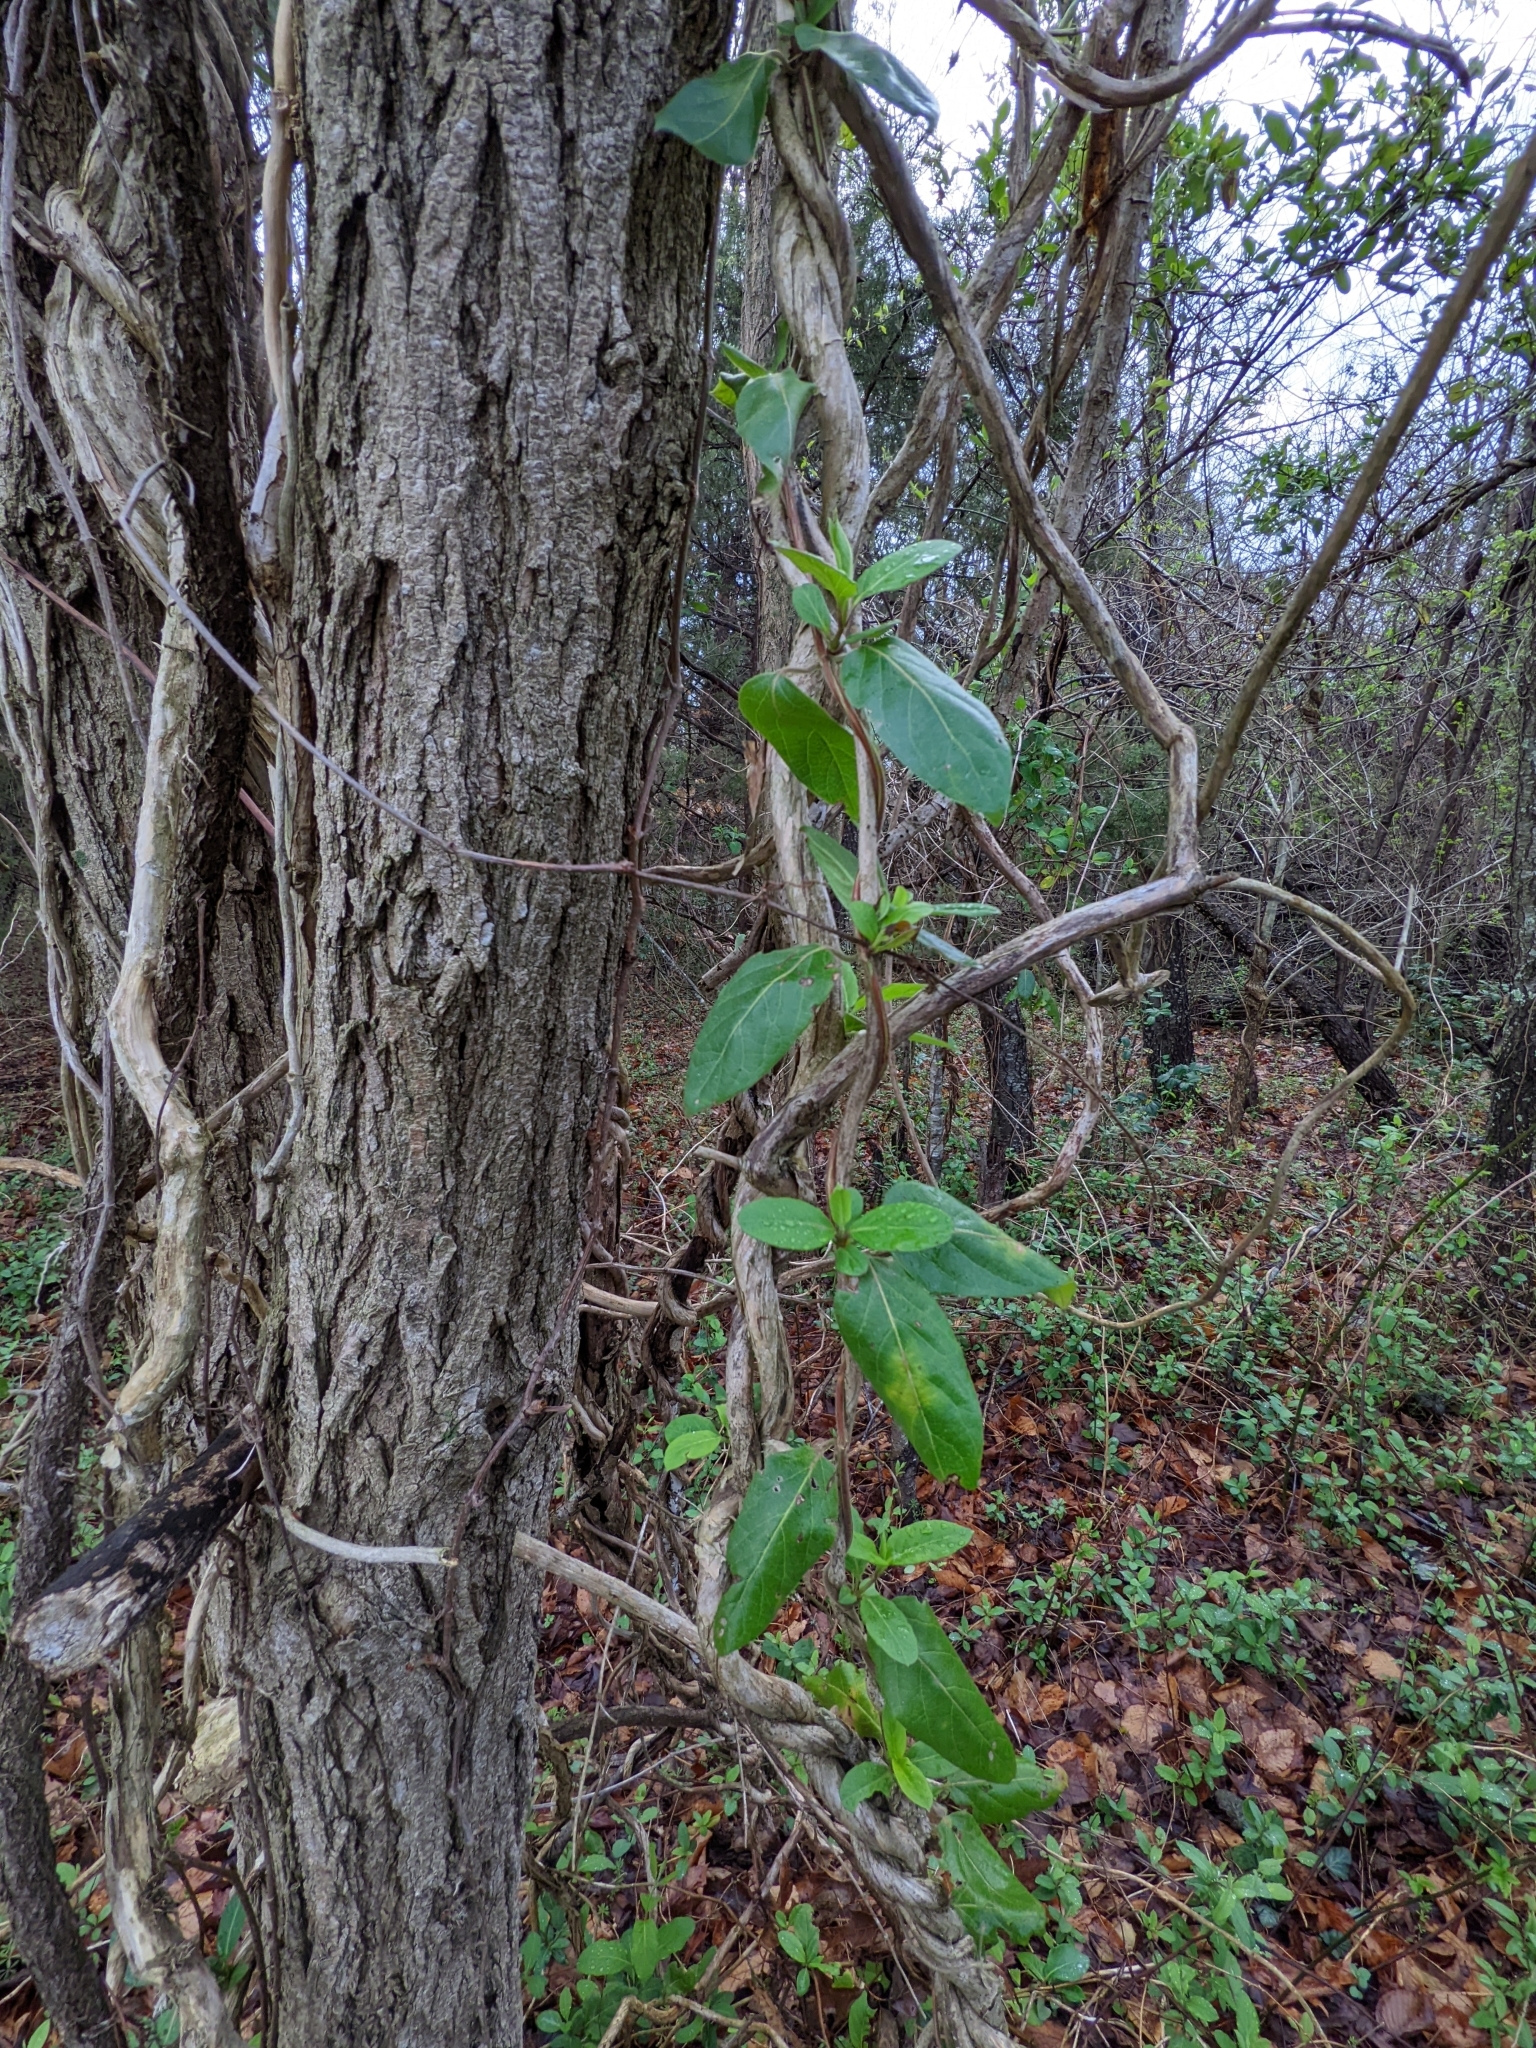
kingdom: Plantae
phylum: Tracheophyta
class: Magnoliopsida
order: Dipsacales
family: Caprifoliaceae
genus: Lonicera
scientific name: Lonicera japonica
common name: Japanese honeysuckle
